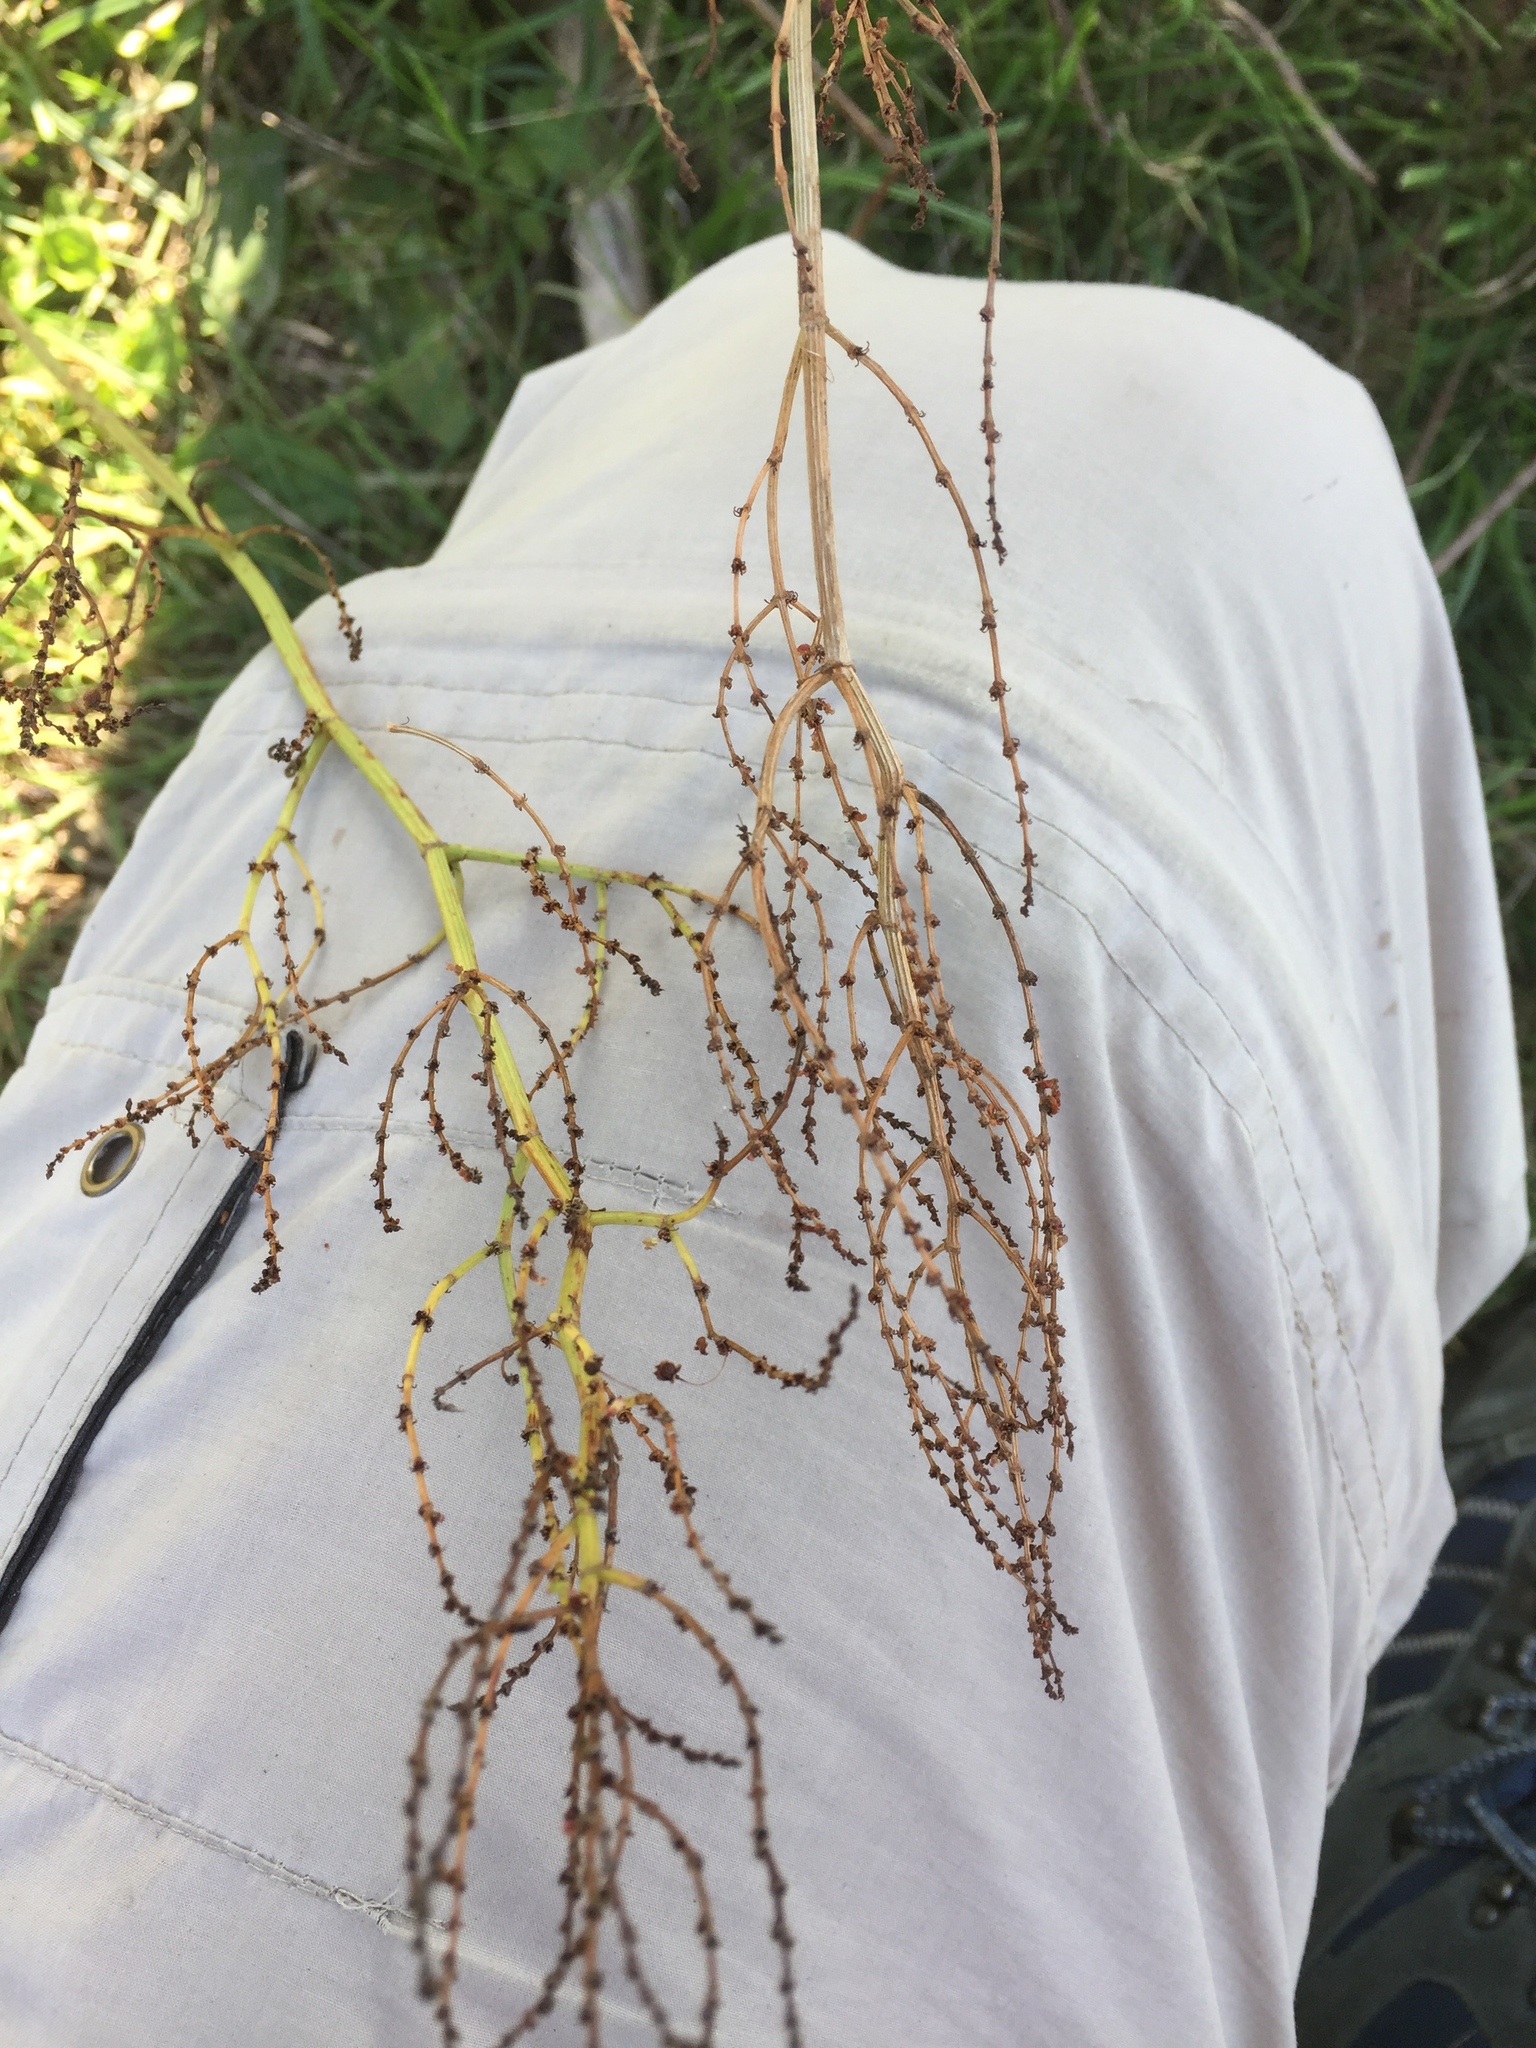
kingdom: Plantae
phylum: Tracheophyta
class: Magnoliopsida
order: Caryophyllales
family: Polygonaceae
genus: Rumex
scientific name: Rumex thyrsiflorus
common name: Garden sorrel
